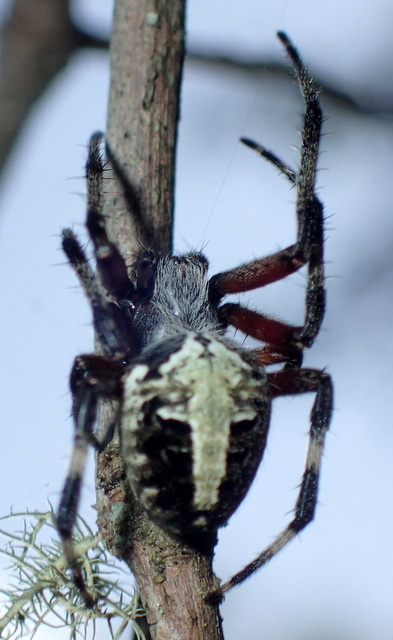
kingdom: Animalia
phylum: Arthropoda
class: Arachnida
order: Araneae
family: Araneidae
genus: Neoscona
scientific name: Neoscona domiciliorum
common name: Red-femured spotted orbweaver
